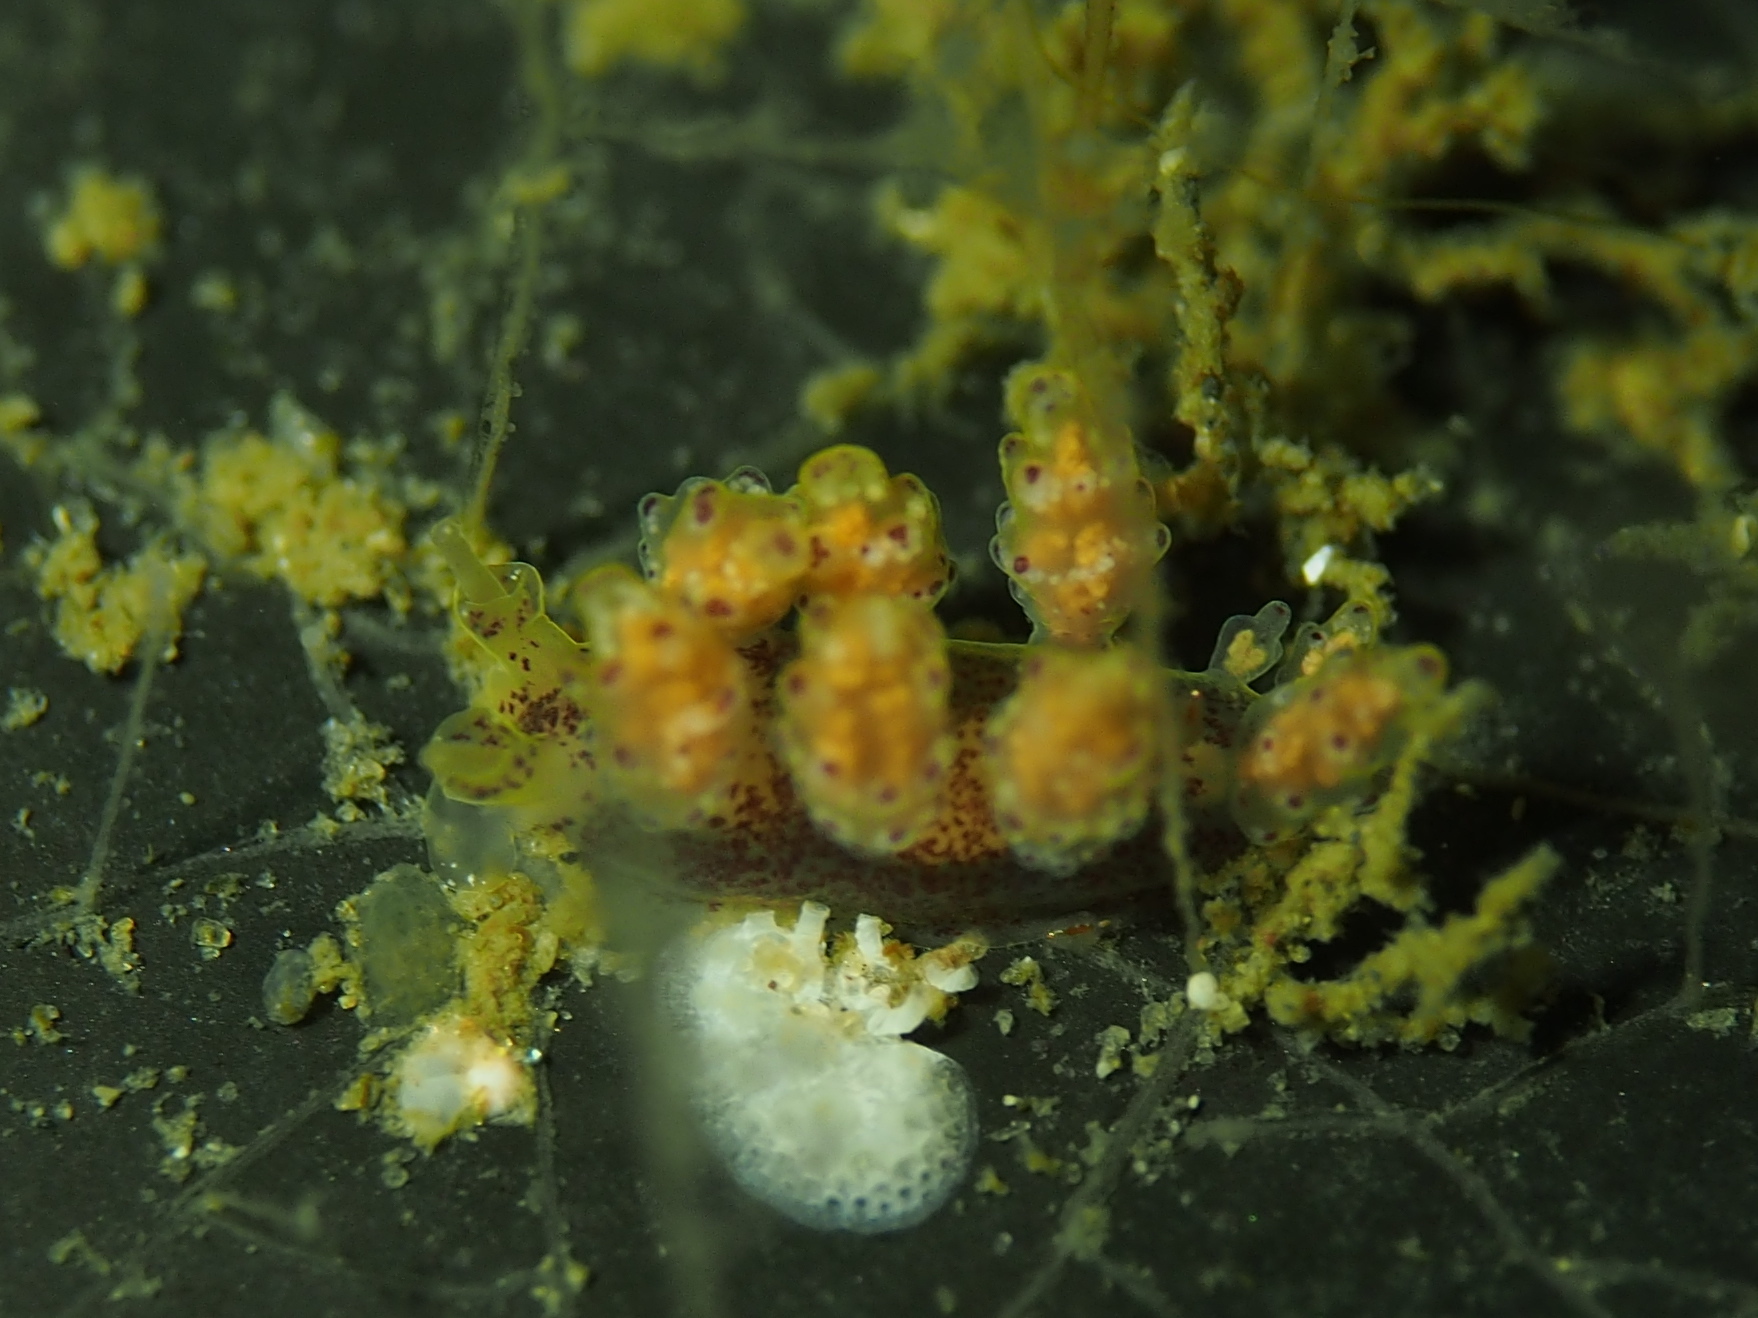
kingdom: Animalia
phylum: Mollusca
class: Gastropoda
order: Nudibranchia
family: Dotidae
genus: Doto
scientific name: Doto maculata
